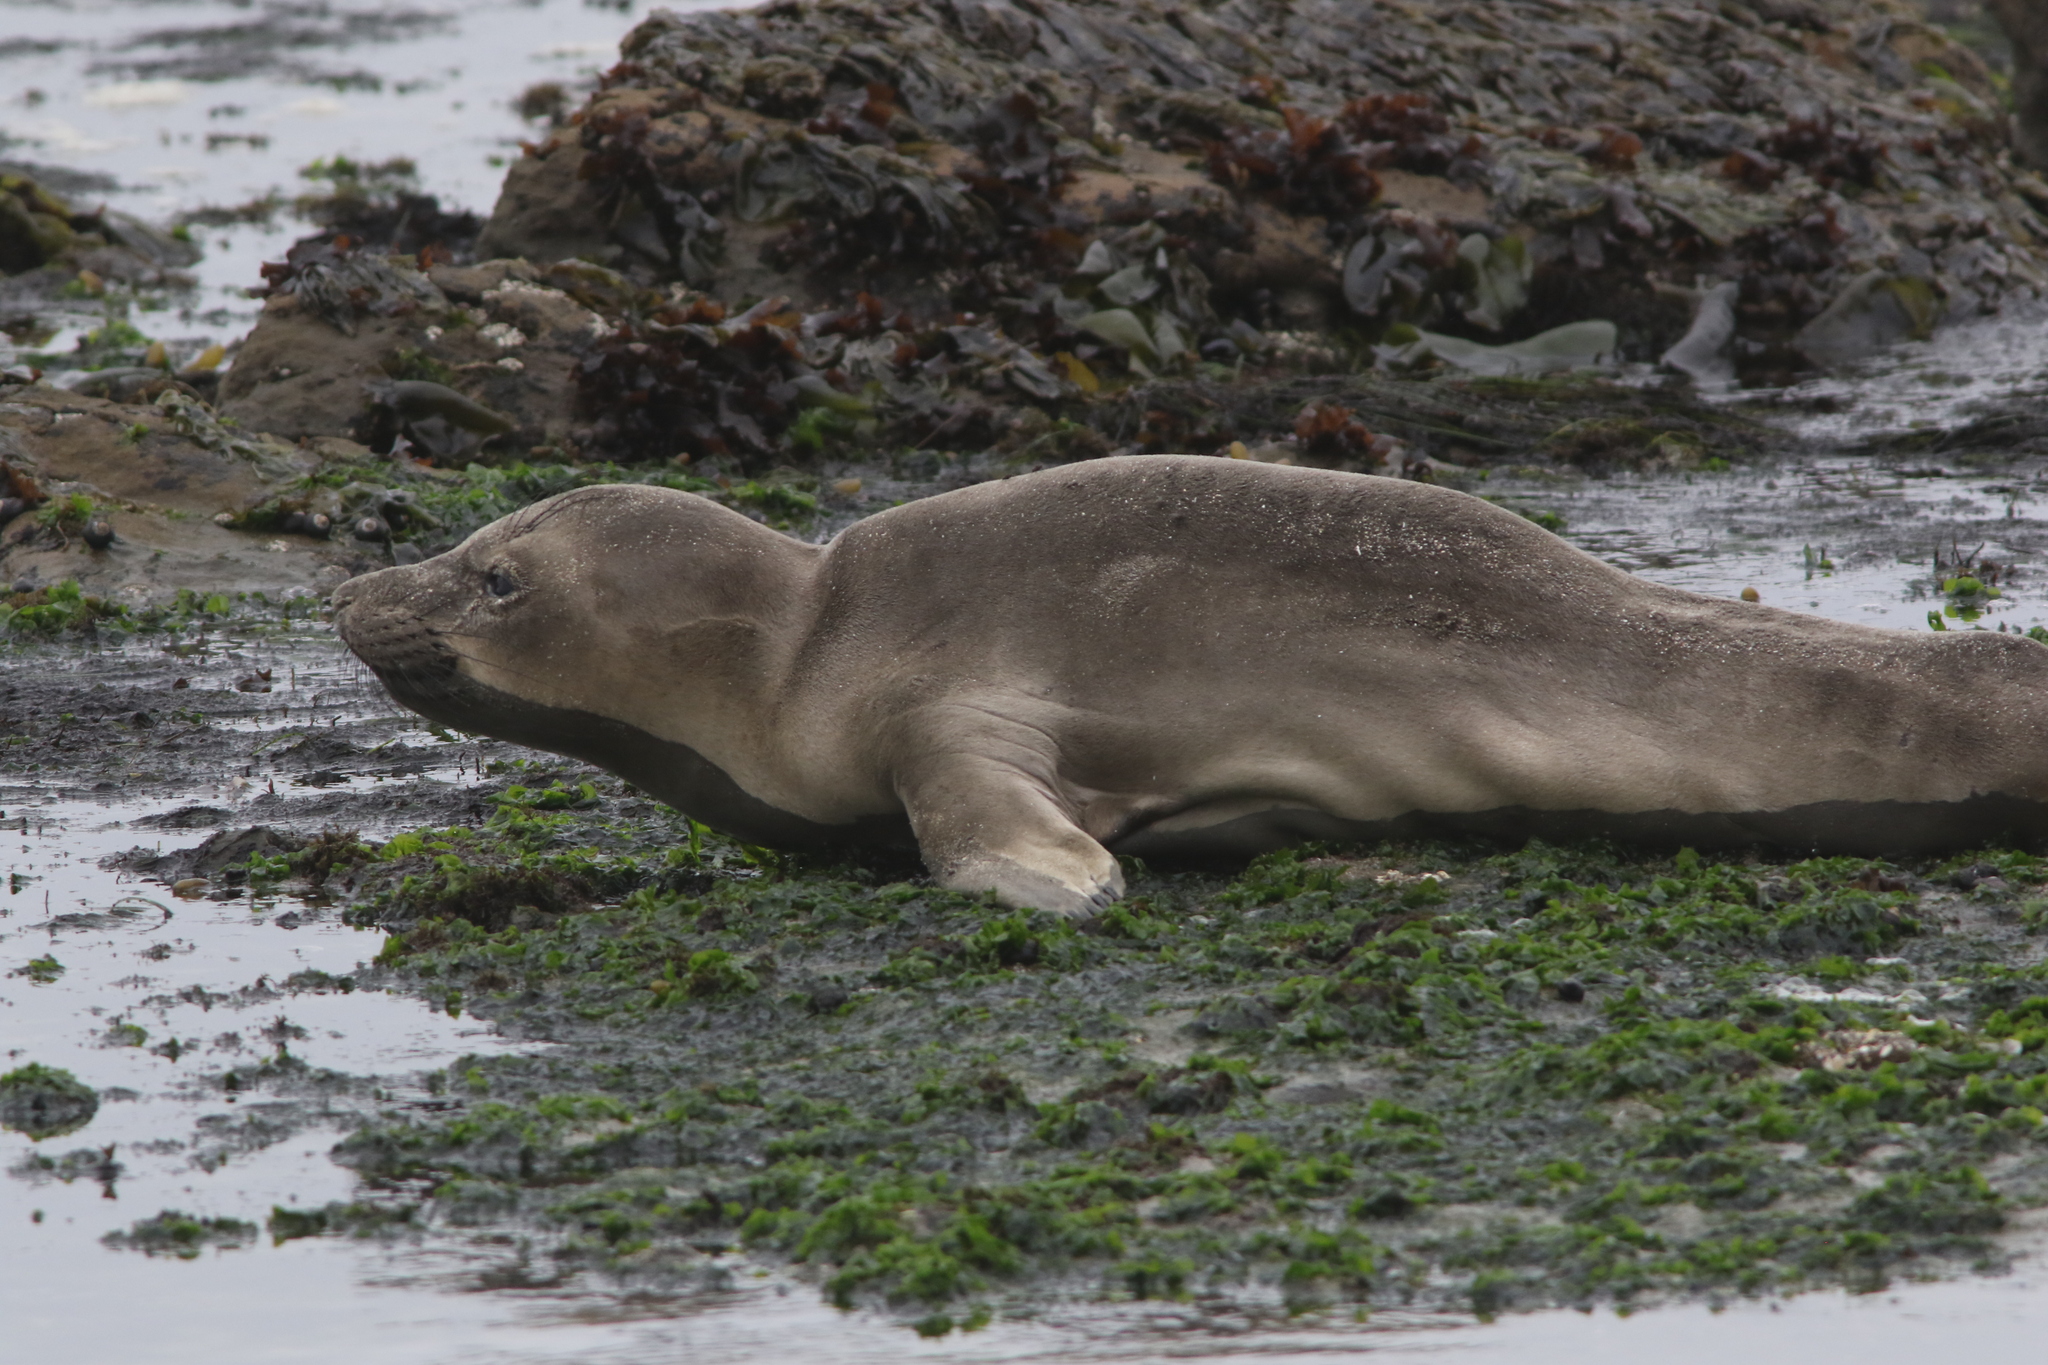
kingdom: Animalia
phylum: Chordata
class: Mammalia
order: Carnivora
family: Phocidae
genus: Mirounga
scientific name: Mirounga angustirostris
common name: Northern elephant seal
